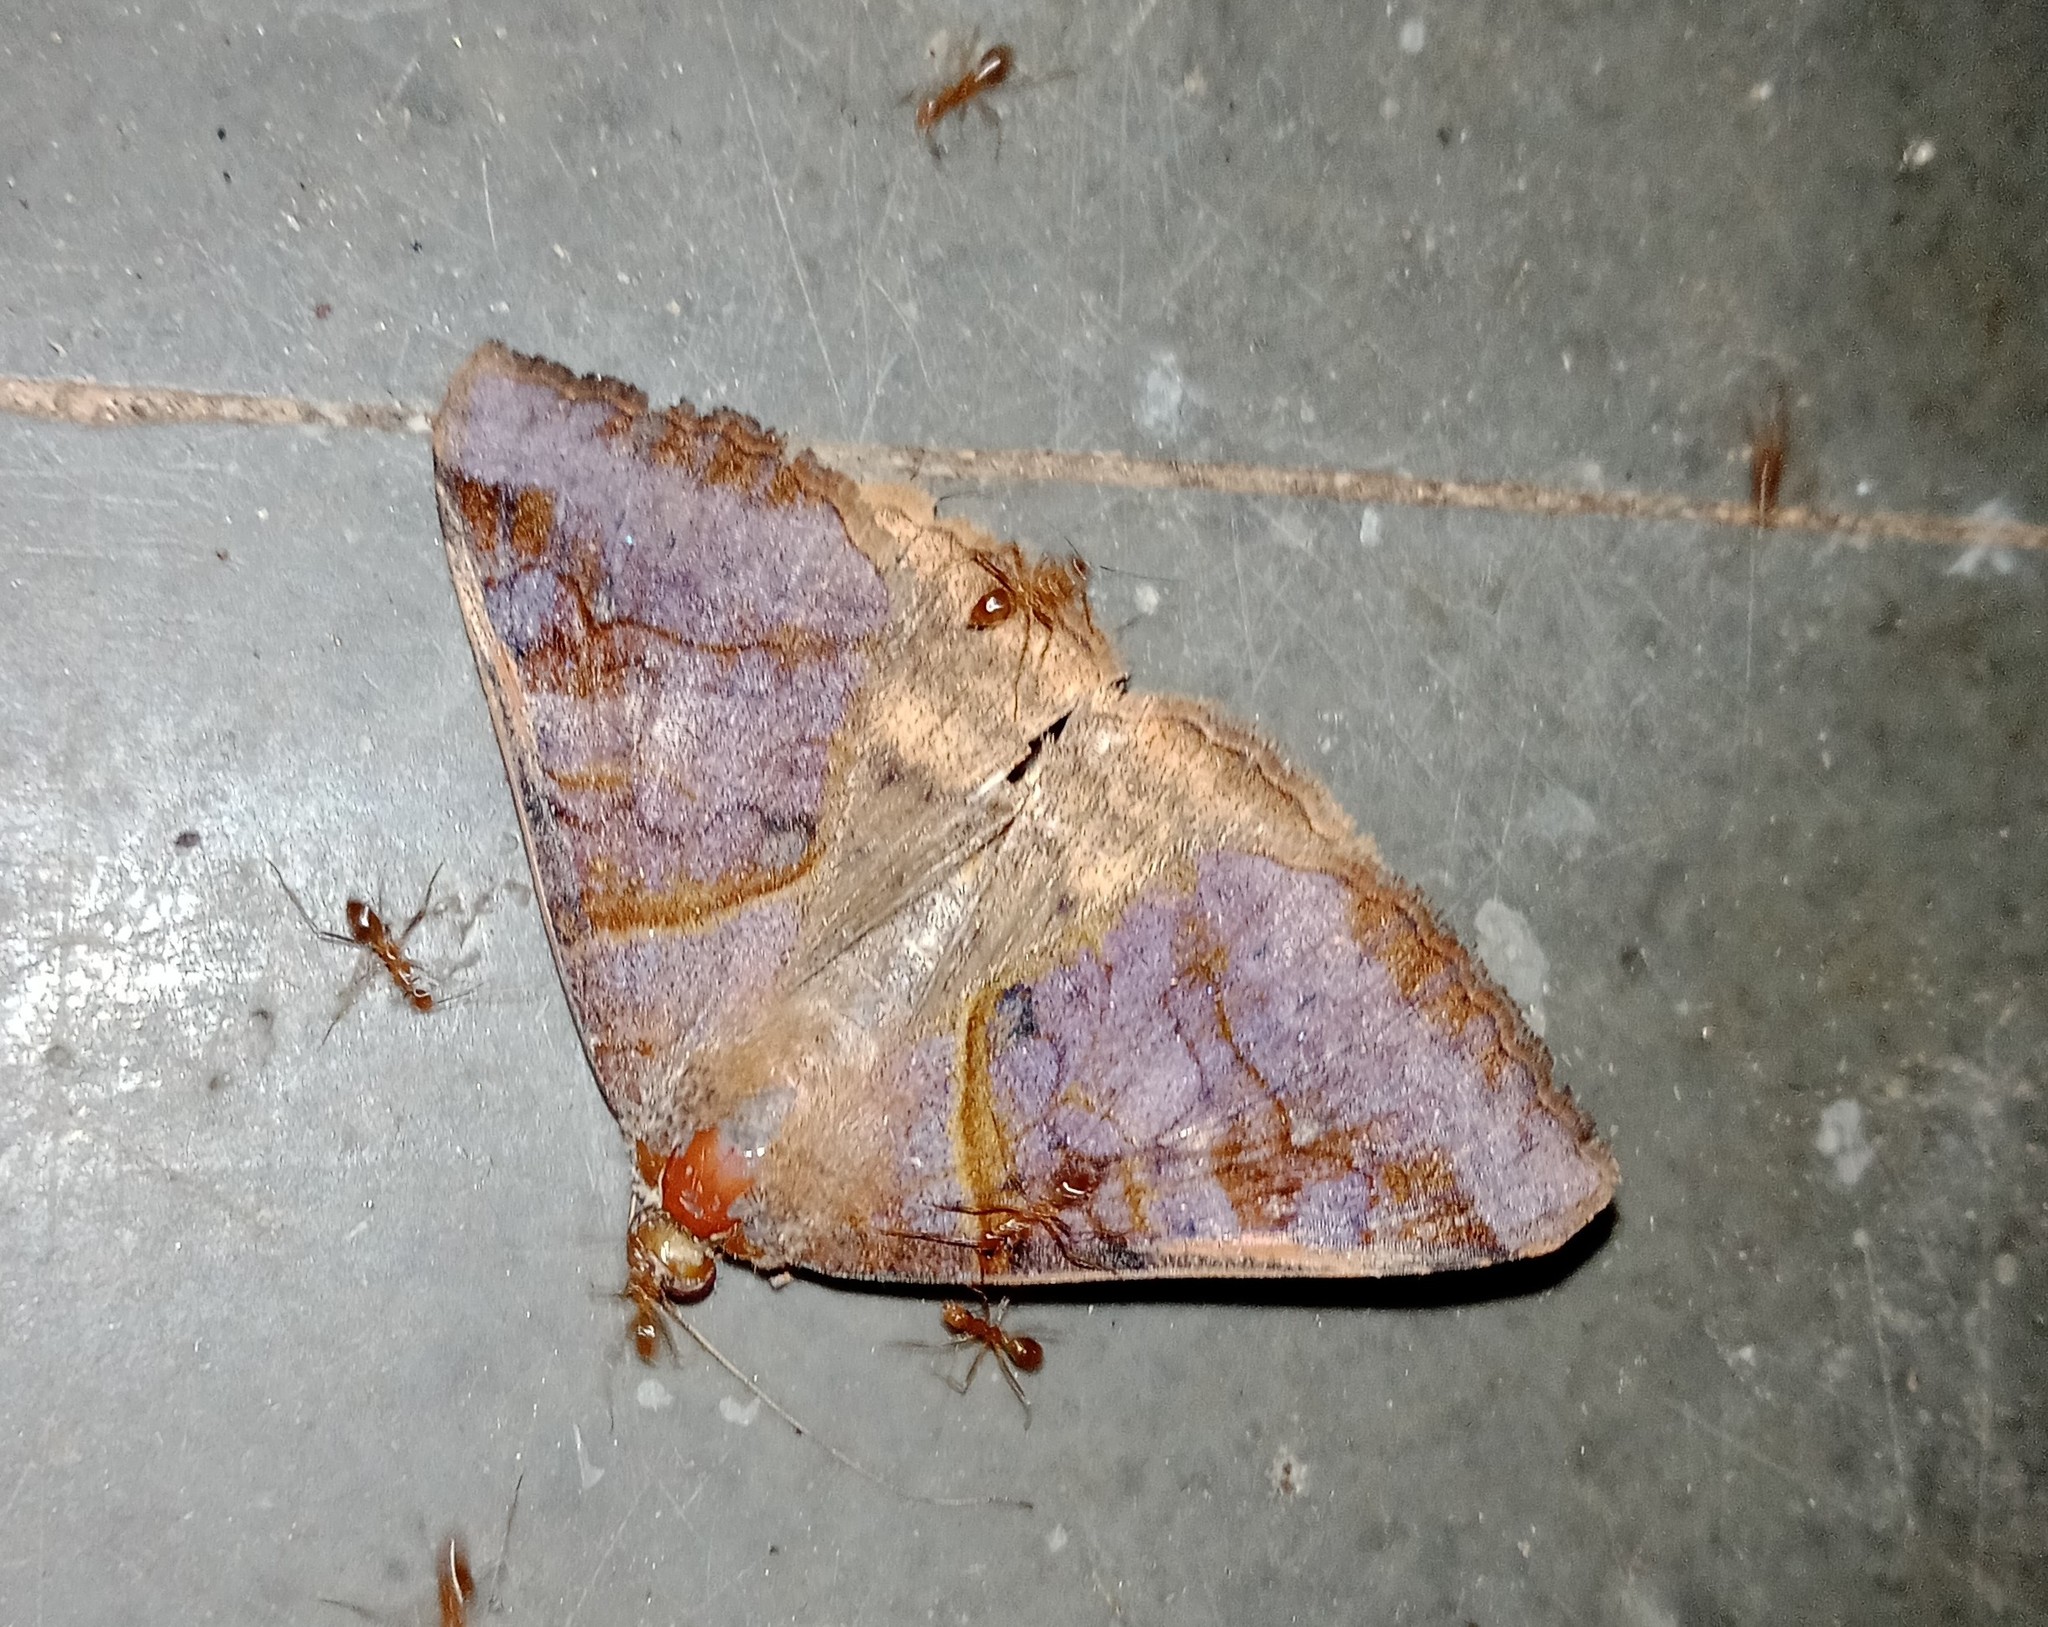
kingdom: Animalia
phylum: Arthropoda
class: Insecta
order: Lepidoptera
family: Erebidae
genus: Mocis
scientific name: Mocis undata
